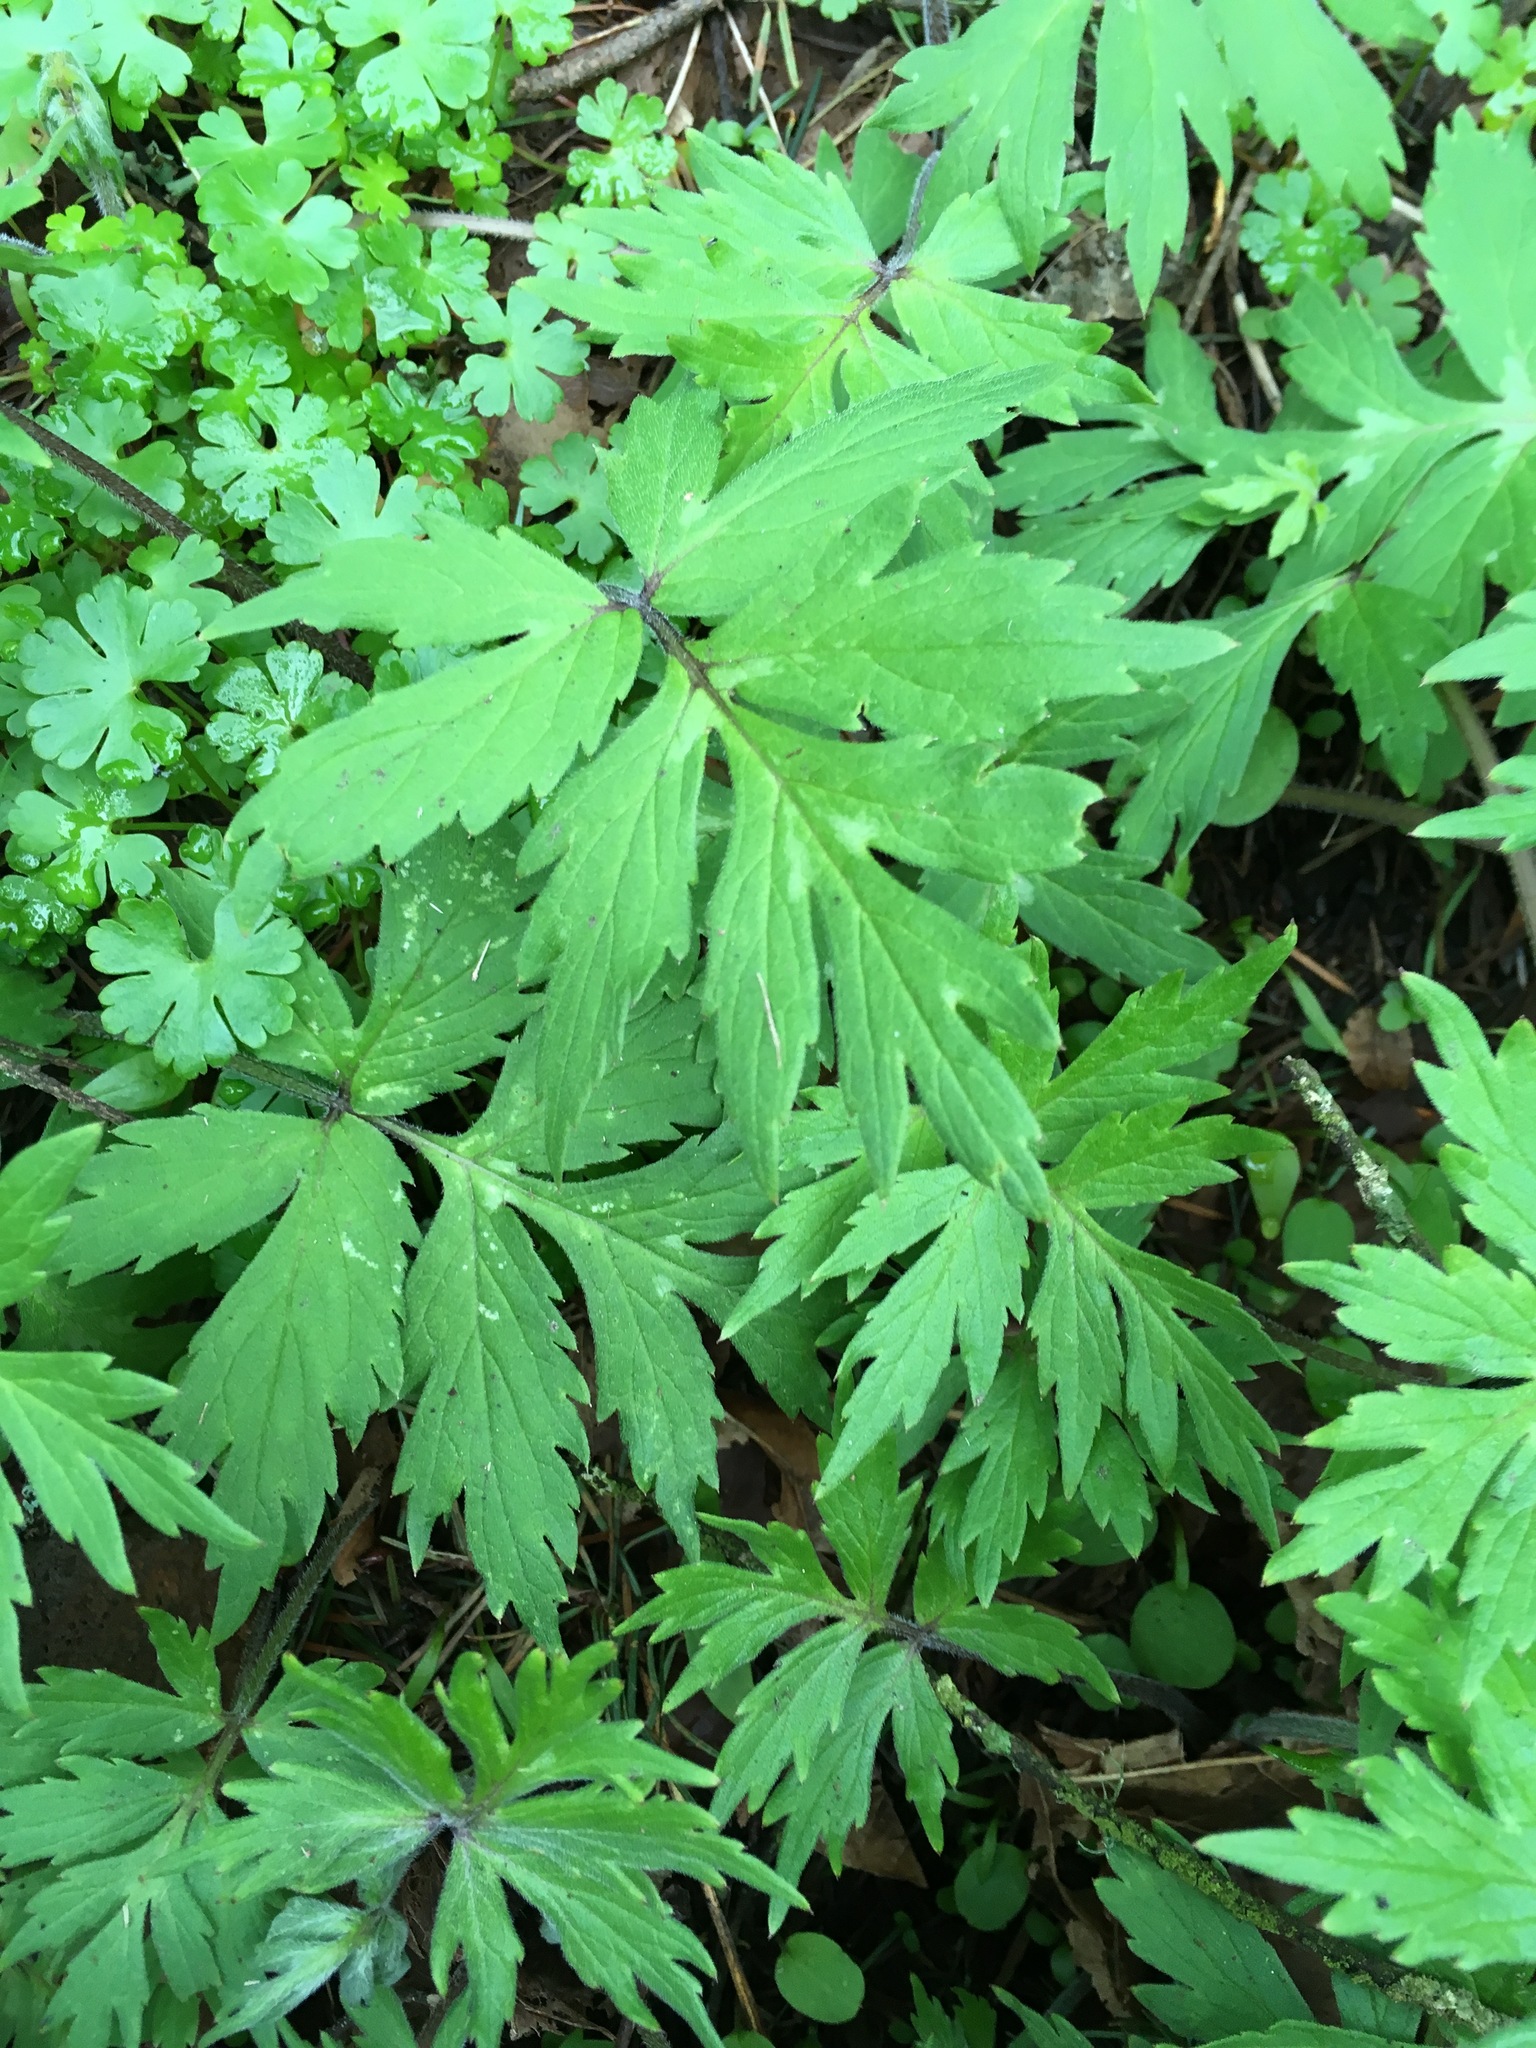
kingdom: Plantae
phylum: Tracheophyta
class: Magnoliopsida
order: Boraginales
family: Hydrophyllaceae
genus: Hydrophyllum
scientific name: Hydrophyllum tenuipes
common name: Pacific waterleaf
